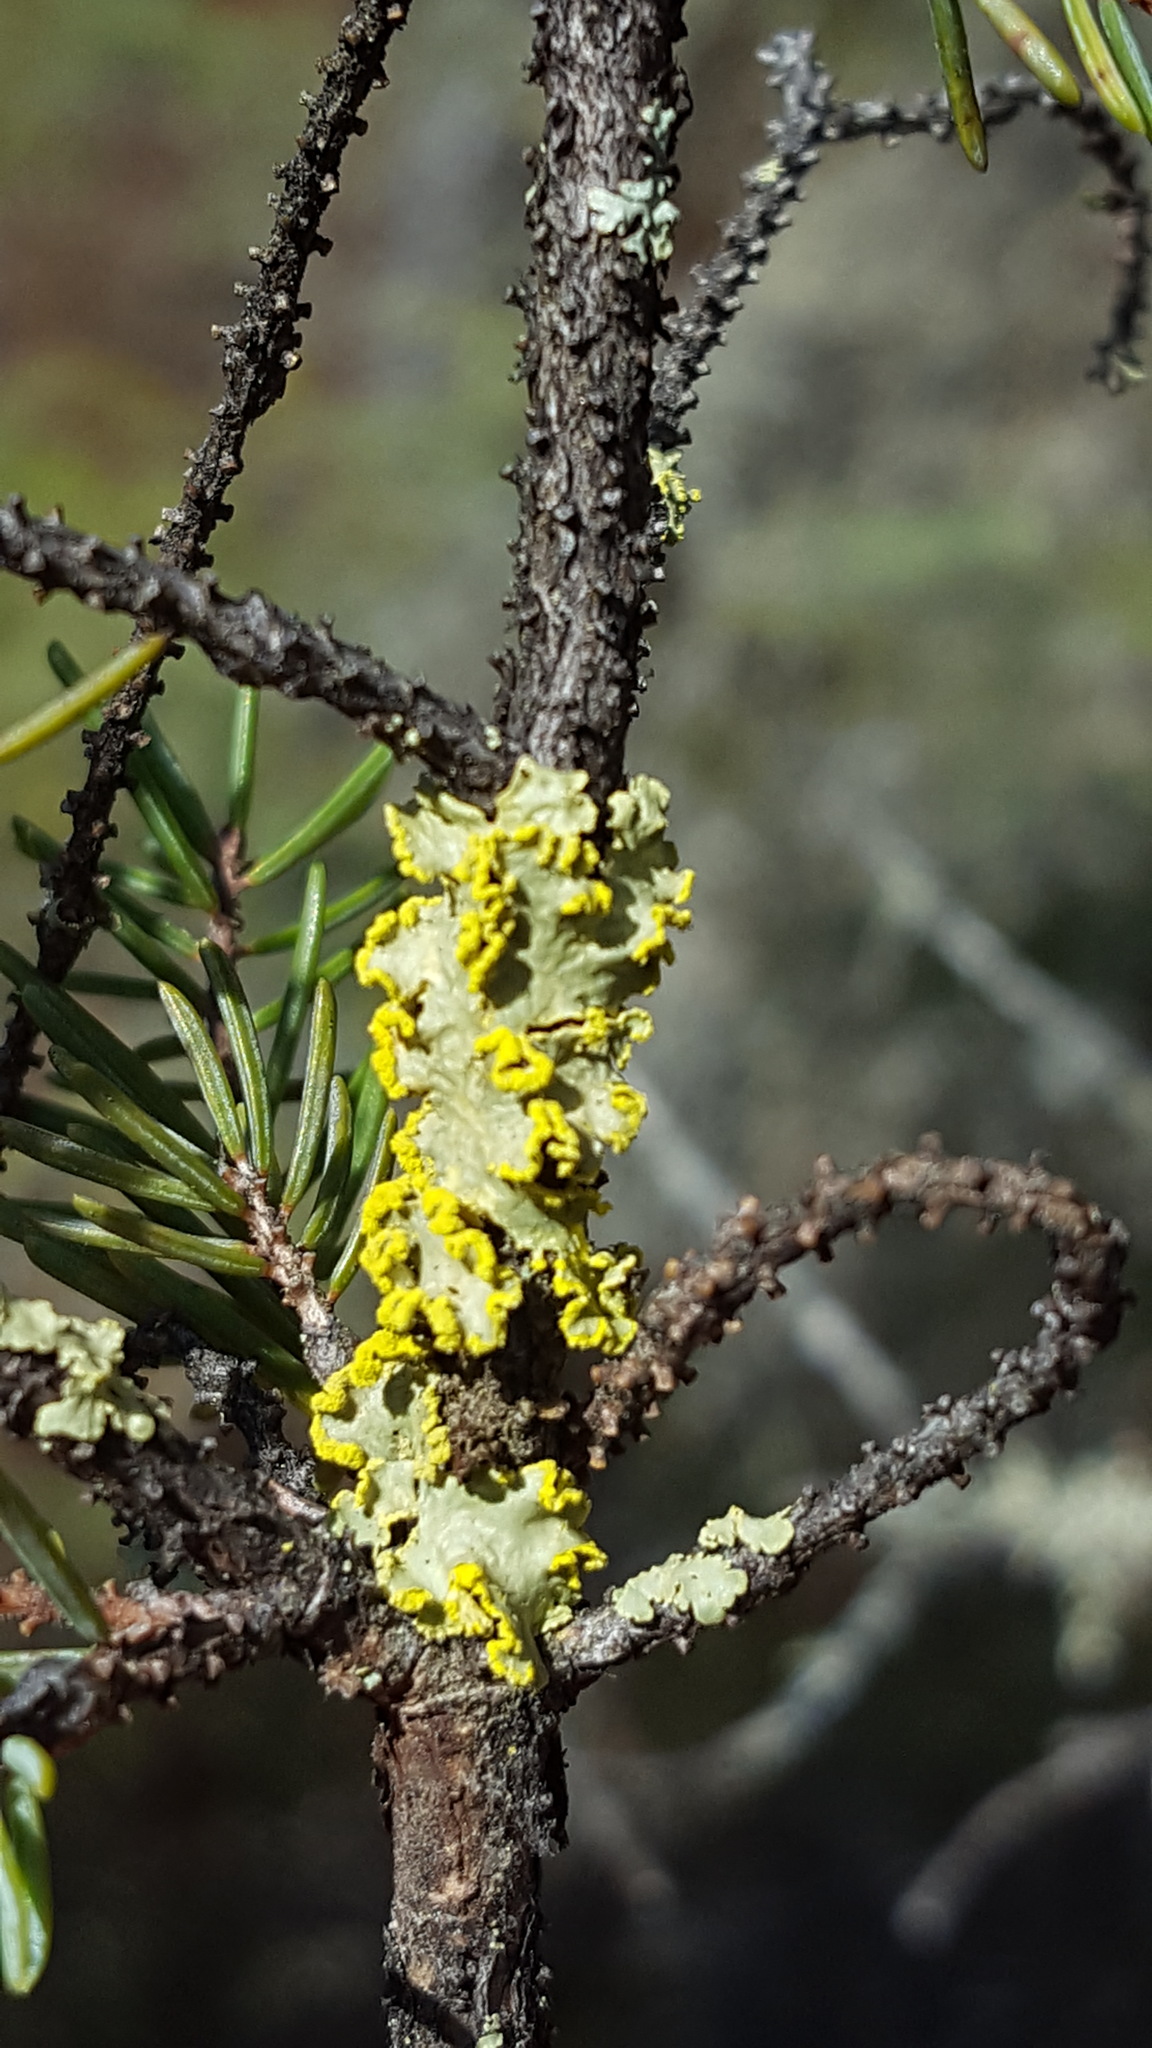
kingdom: Fungi
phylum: Ascomycota
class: Lecanoromycetes
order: Lecanorales
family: Parmeliaceae
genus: Vulpicida
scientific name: Vulpicida pinastri
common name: Powdered sunshine lichen
